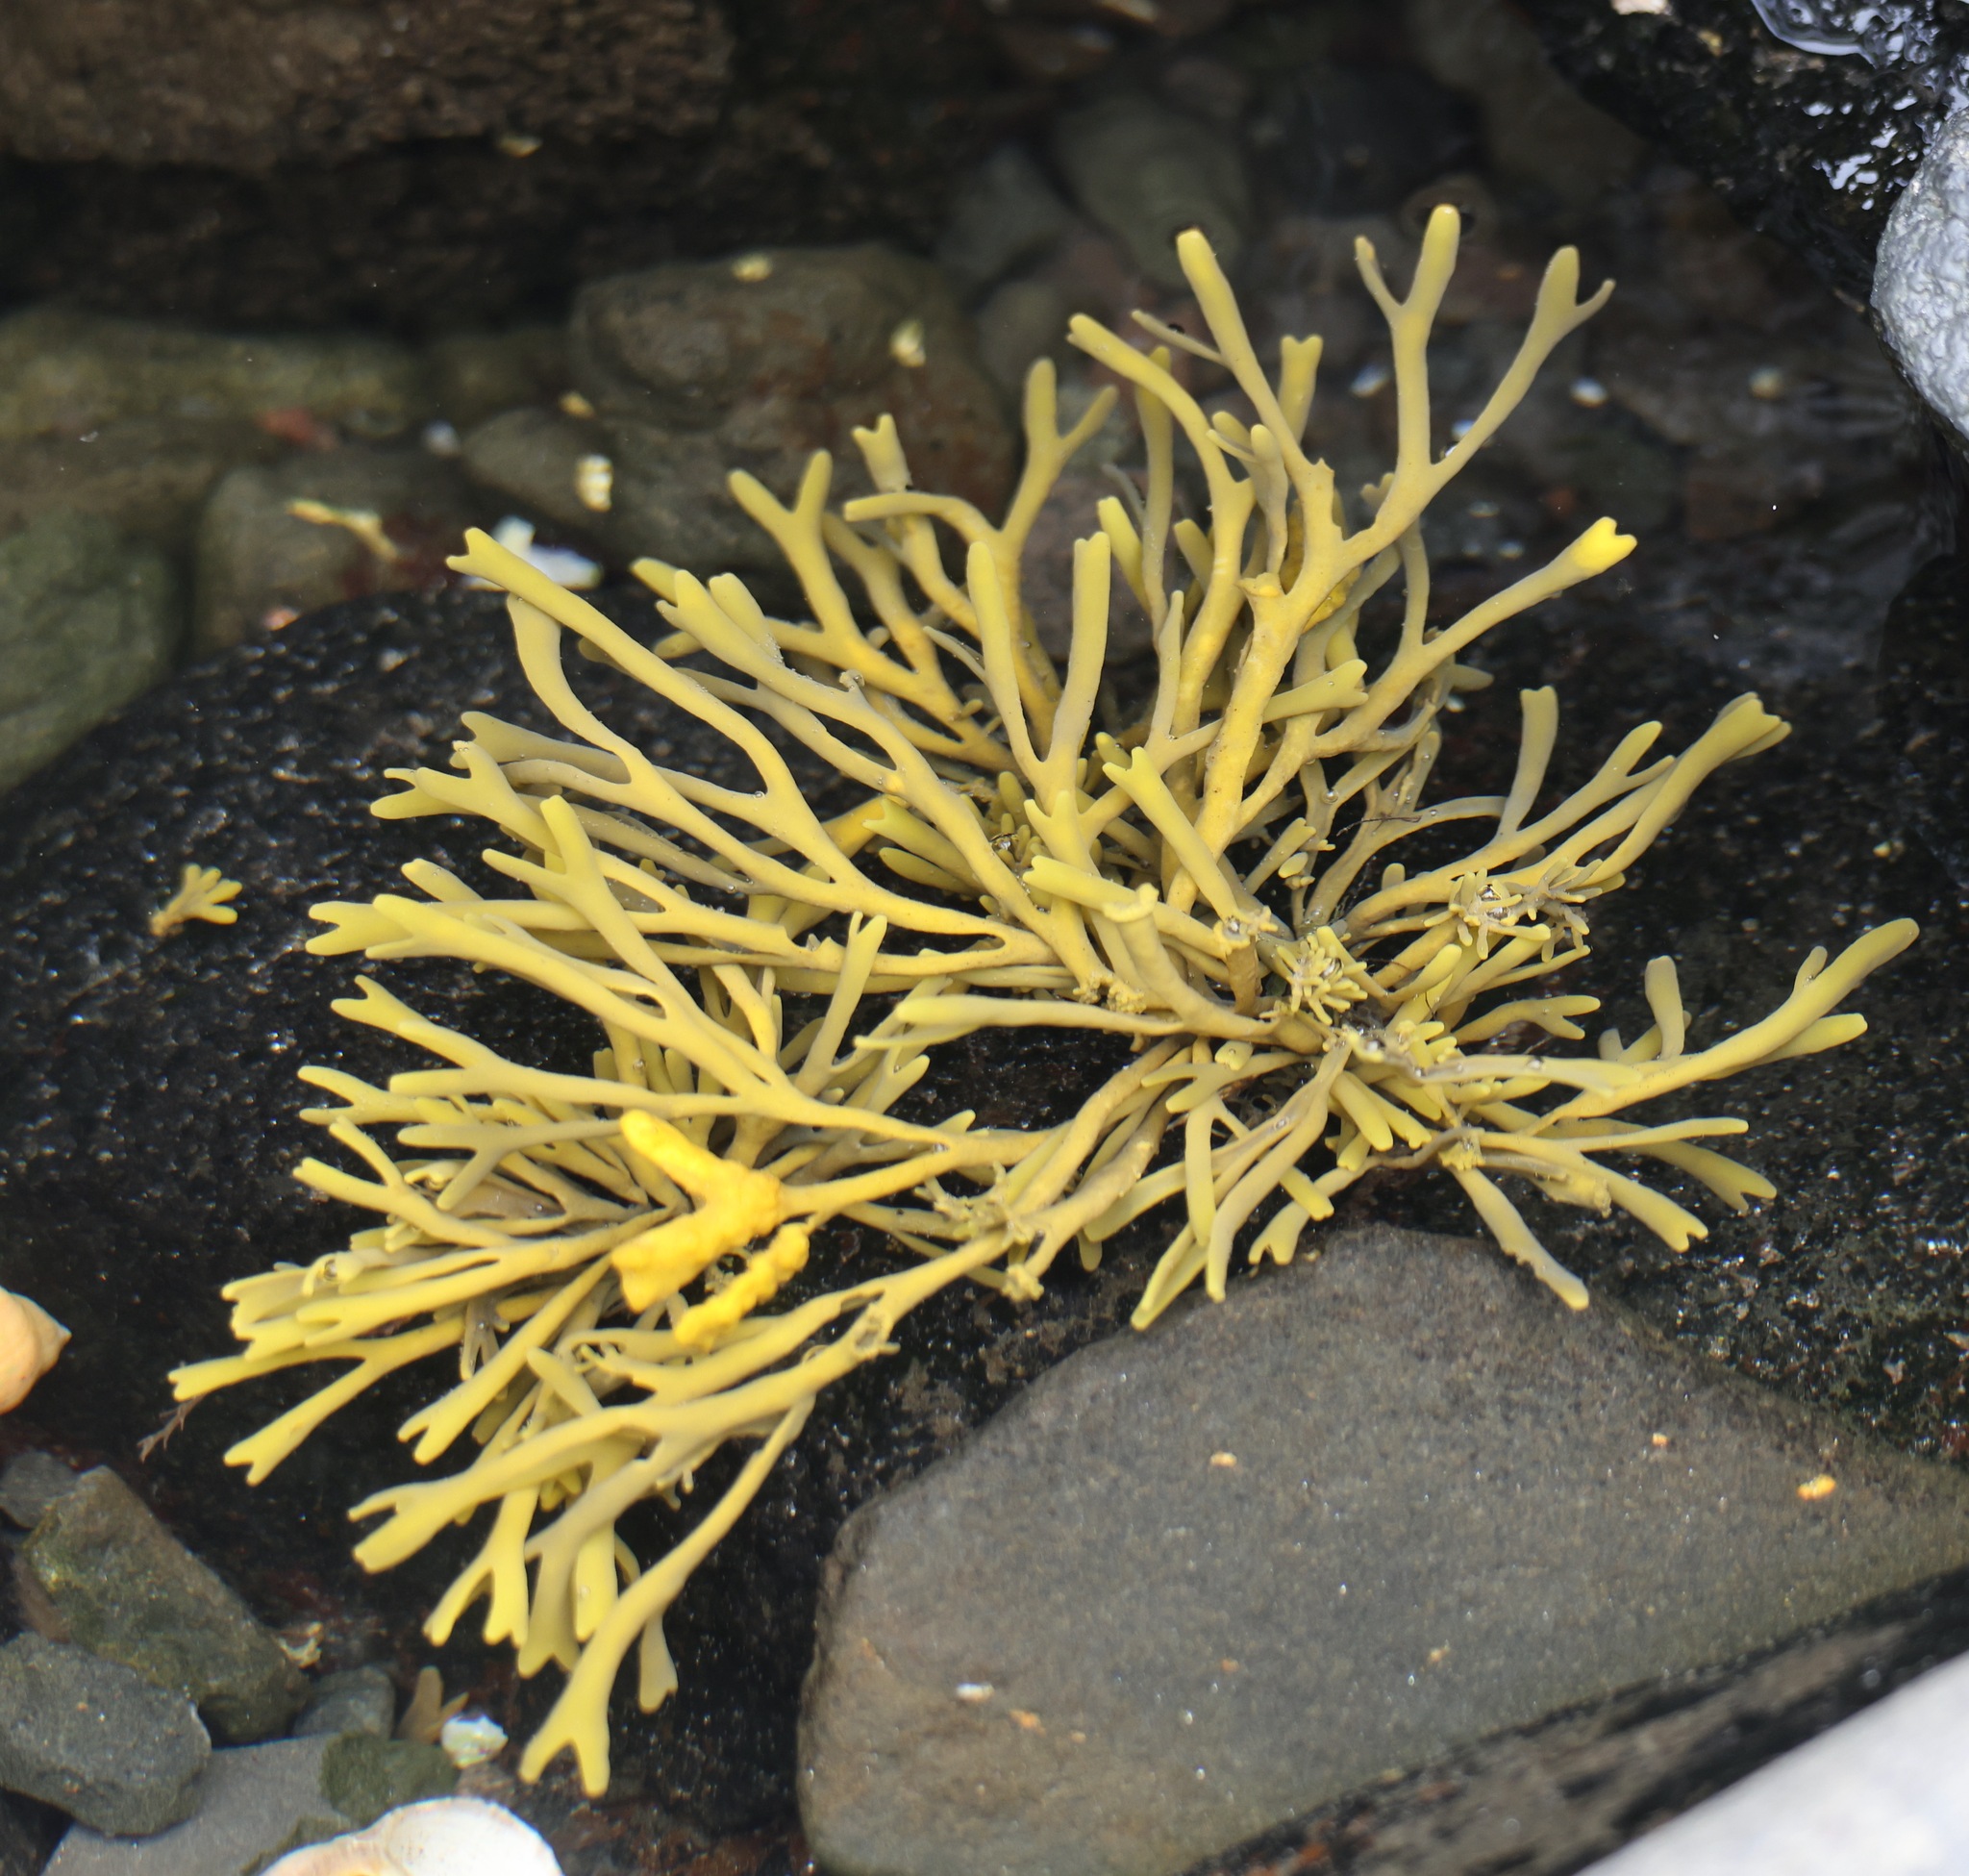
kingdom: Chromista
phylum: Ochrophyta
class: Phaeophyceae
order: Fucales
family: Fucaceae
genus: Pelvetia
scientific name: Pelvetia canaliculata
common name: Channelled wrack
